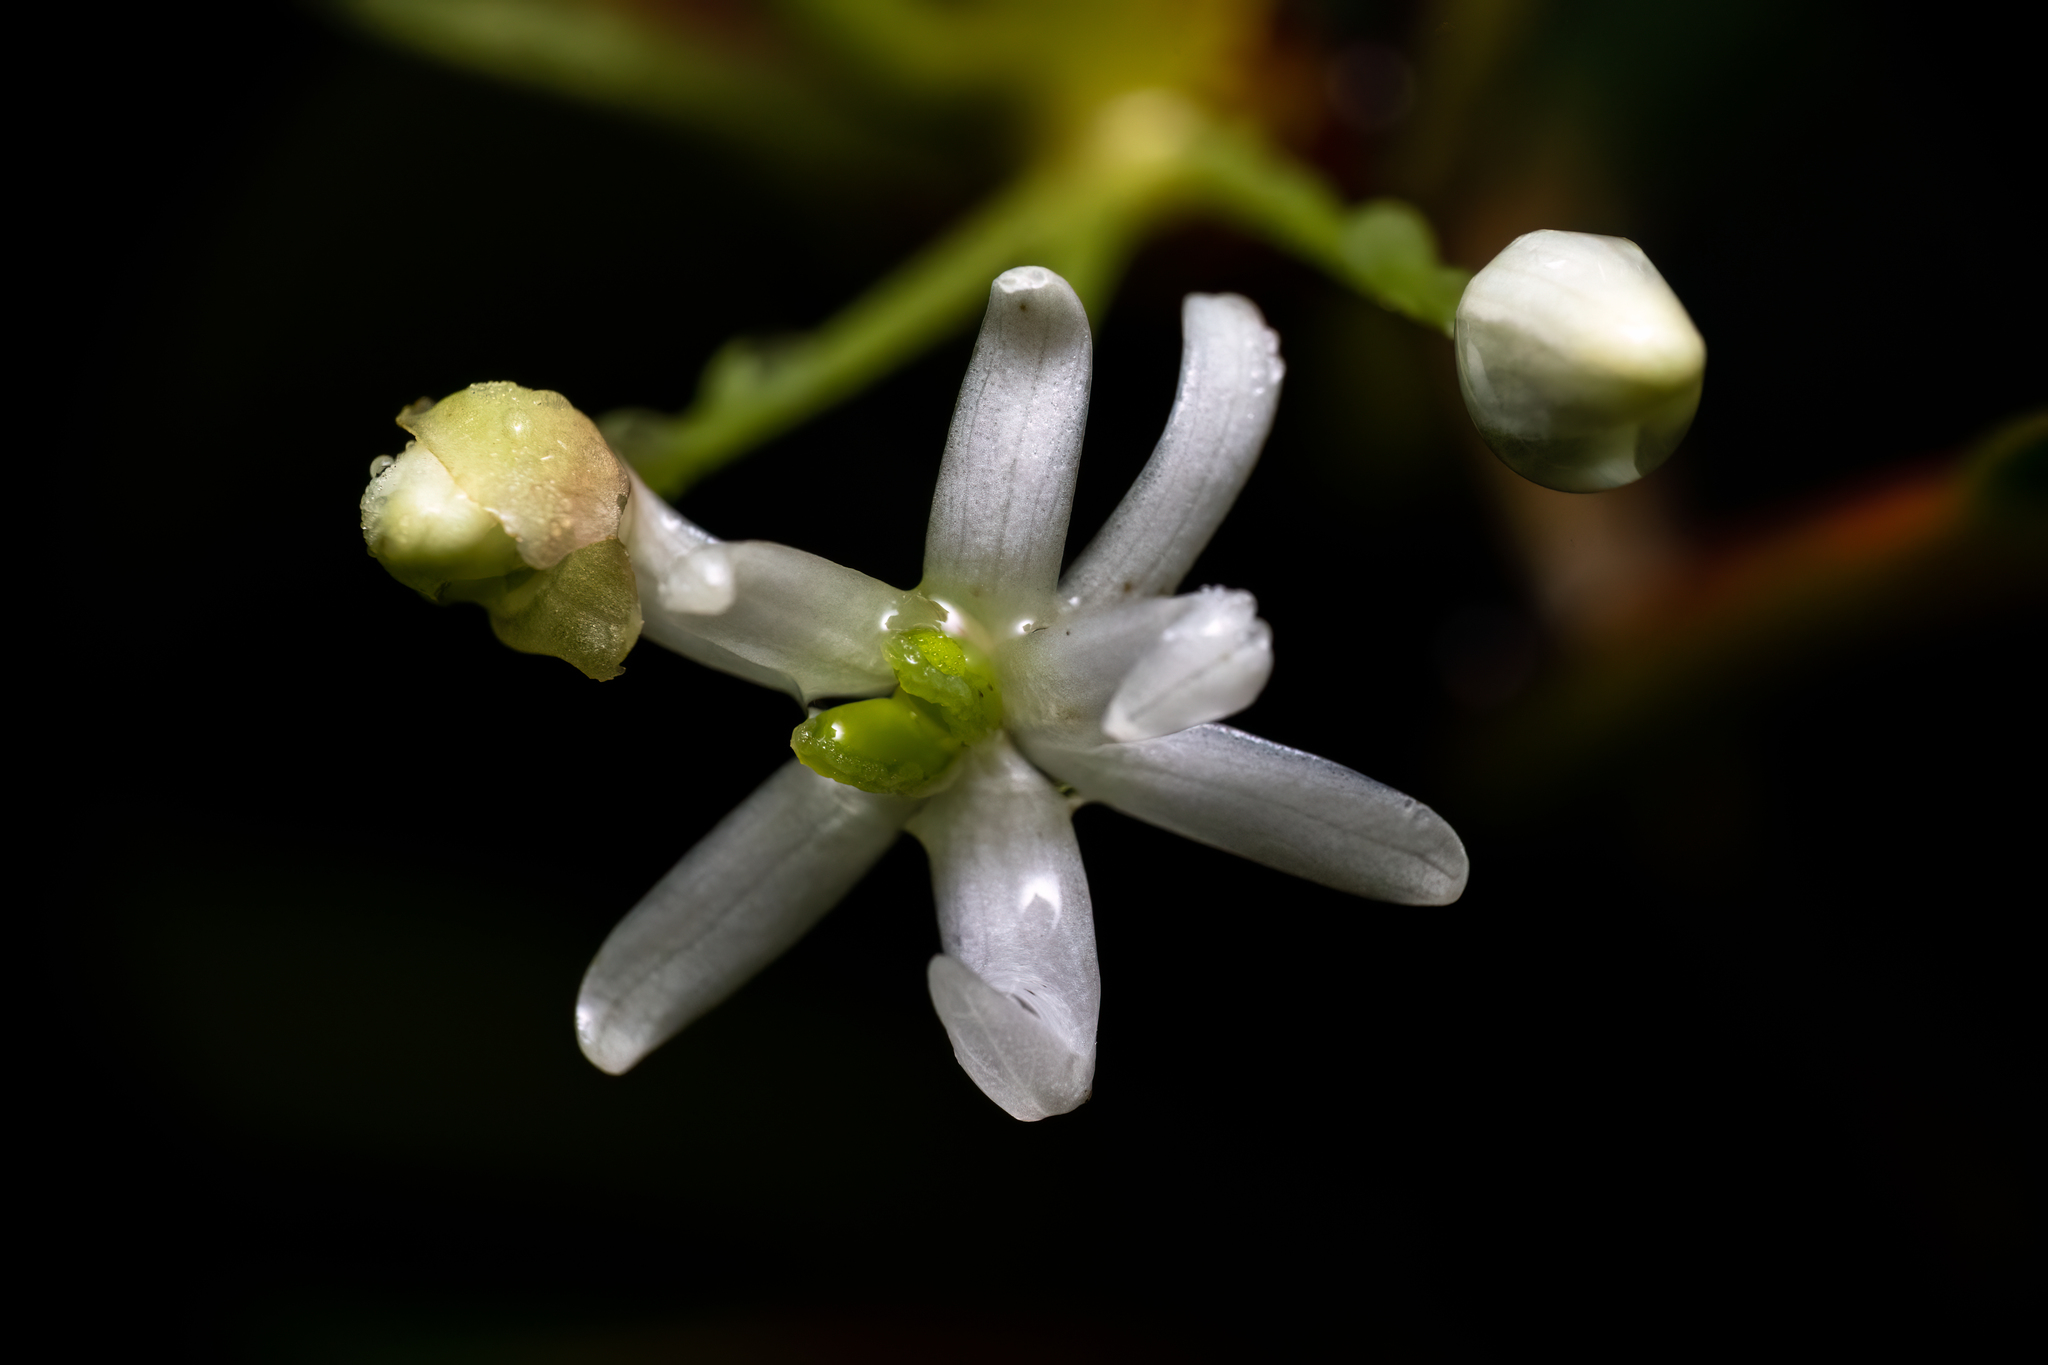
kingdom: Plantae
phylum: Tracheophyta
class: Magnoliopsida
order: Canellales
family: Winteraceae
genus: Drimys
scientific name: Drimys piperita
